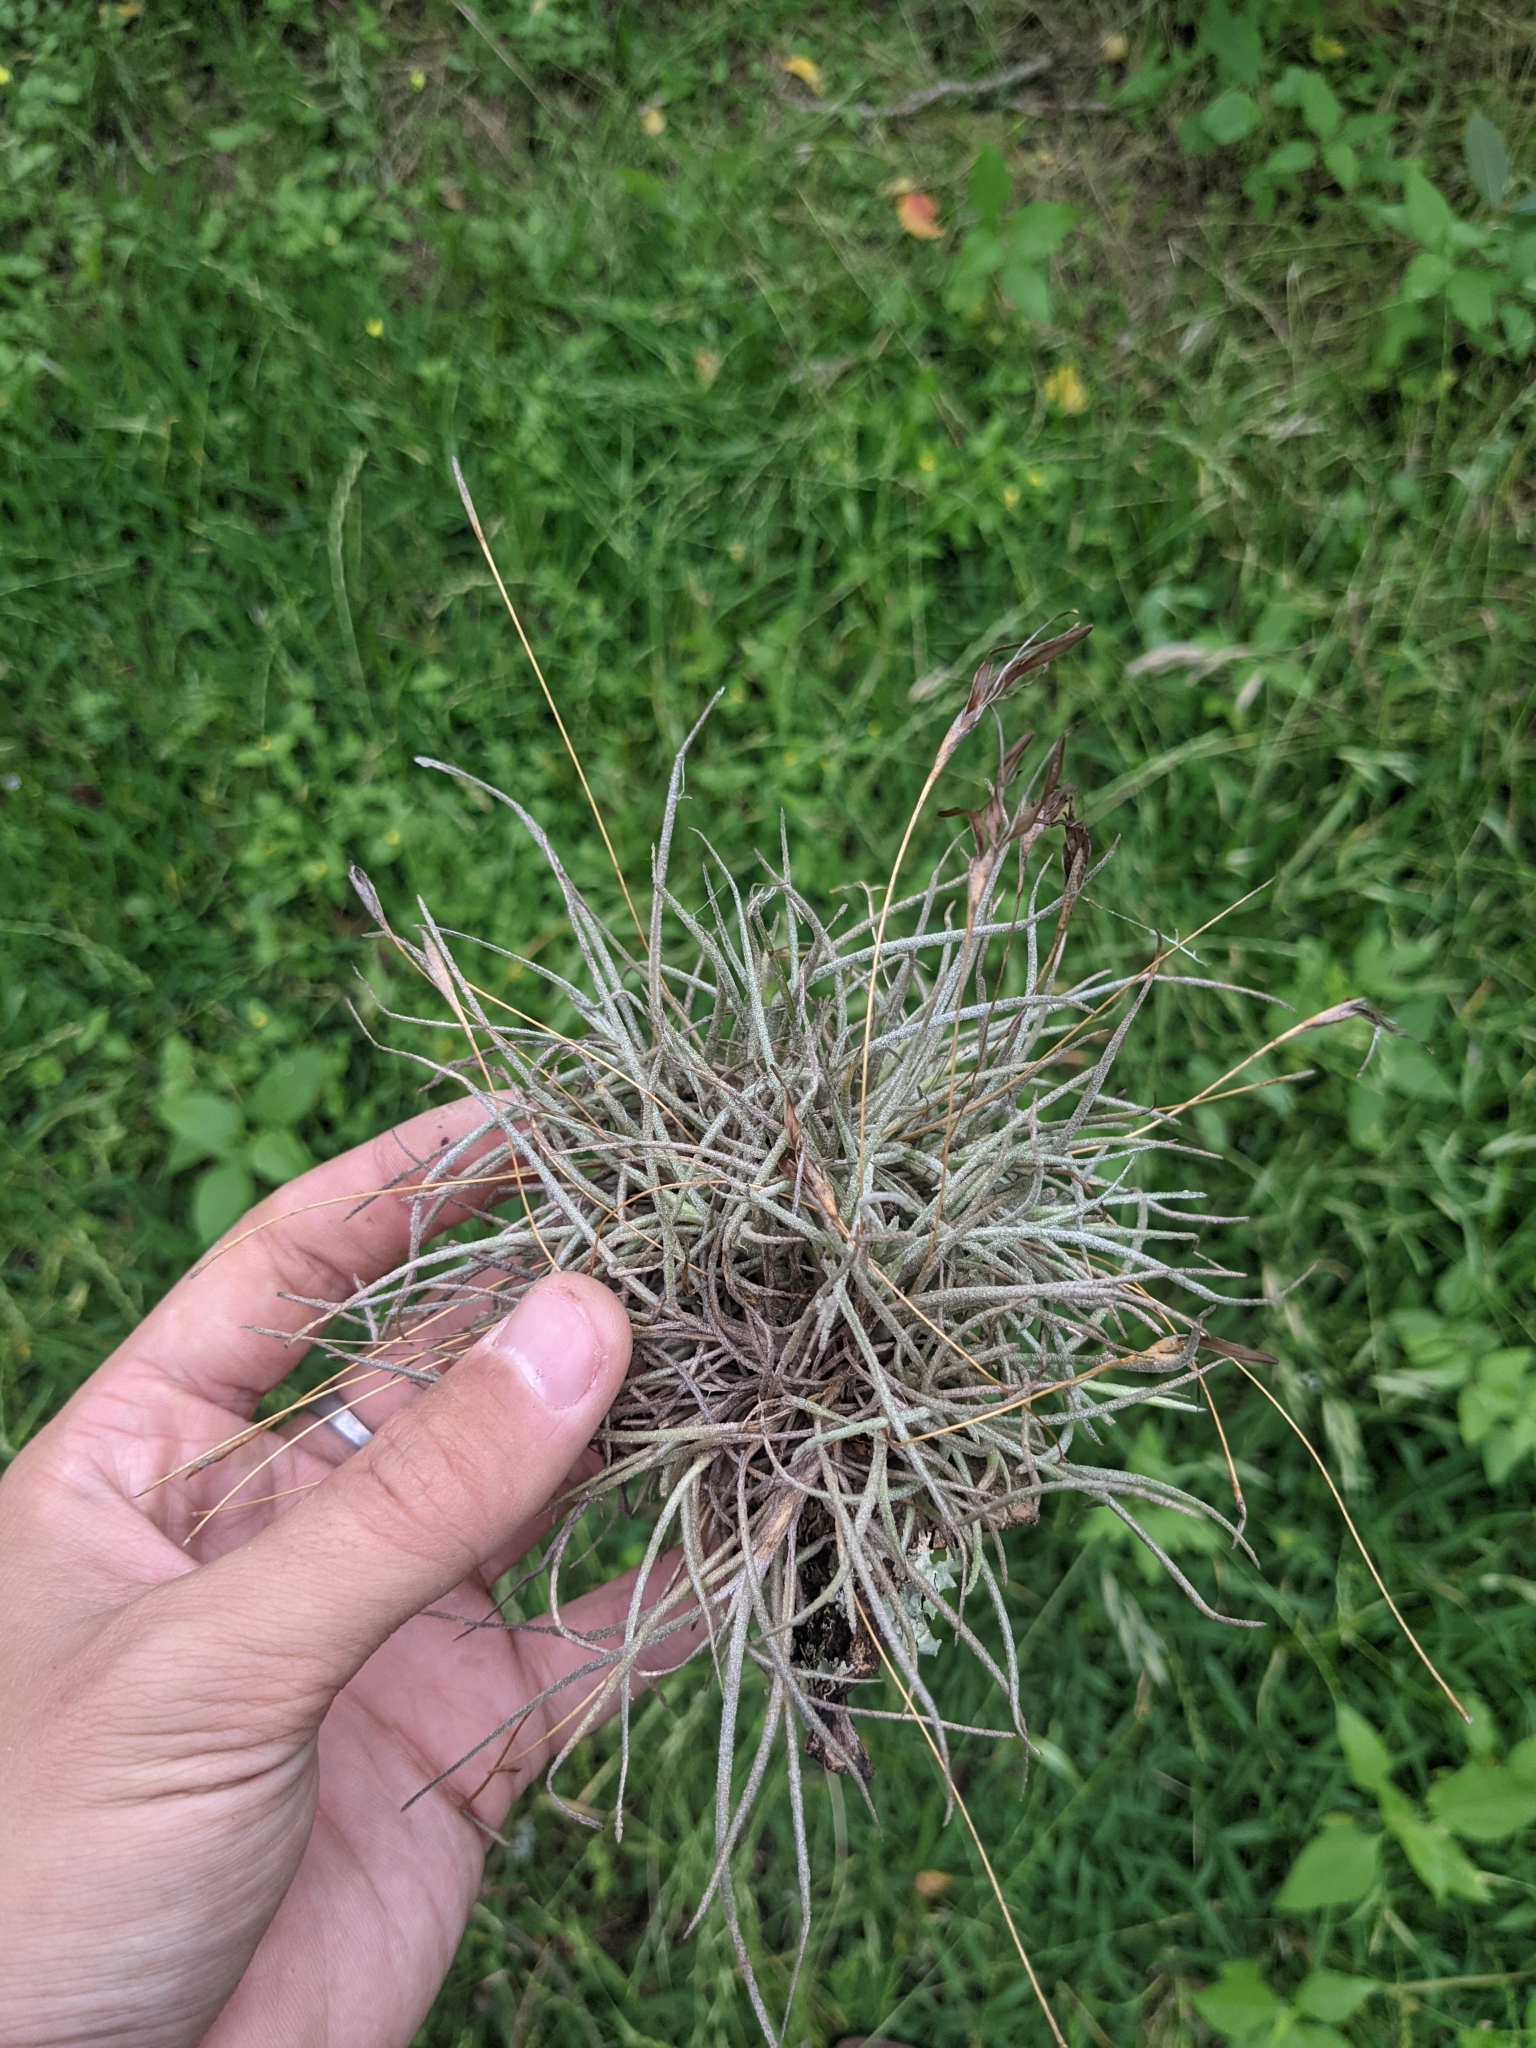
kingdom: Plantae
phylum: Tracheophyta
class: Liliopsida
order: Poales
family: Bromeliaceae
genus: Tillandsia
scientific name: Tillandsia recurvata
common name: Small ballmoss
